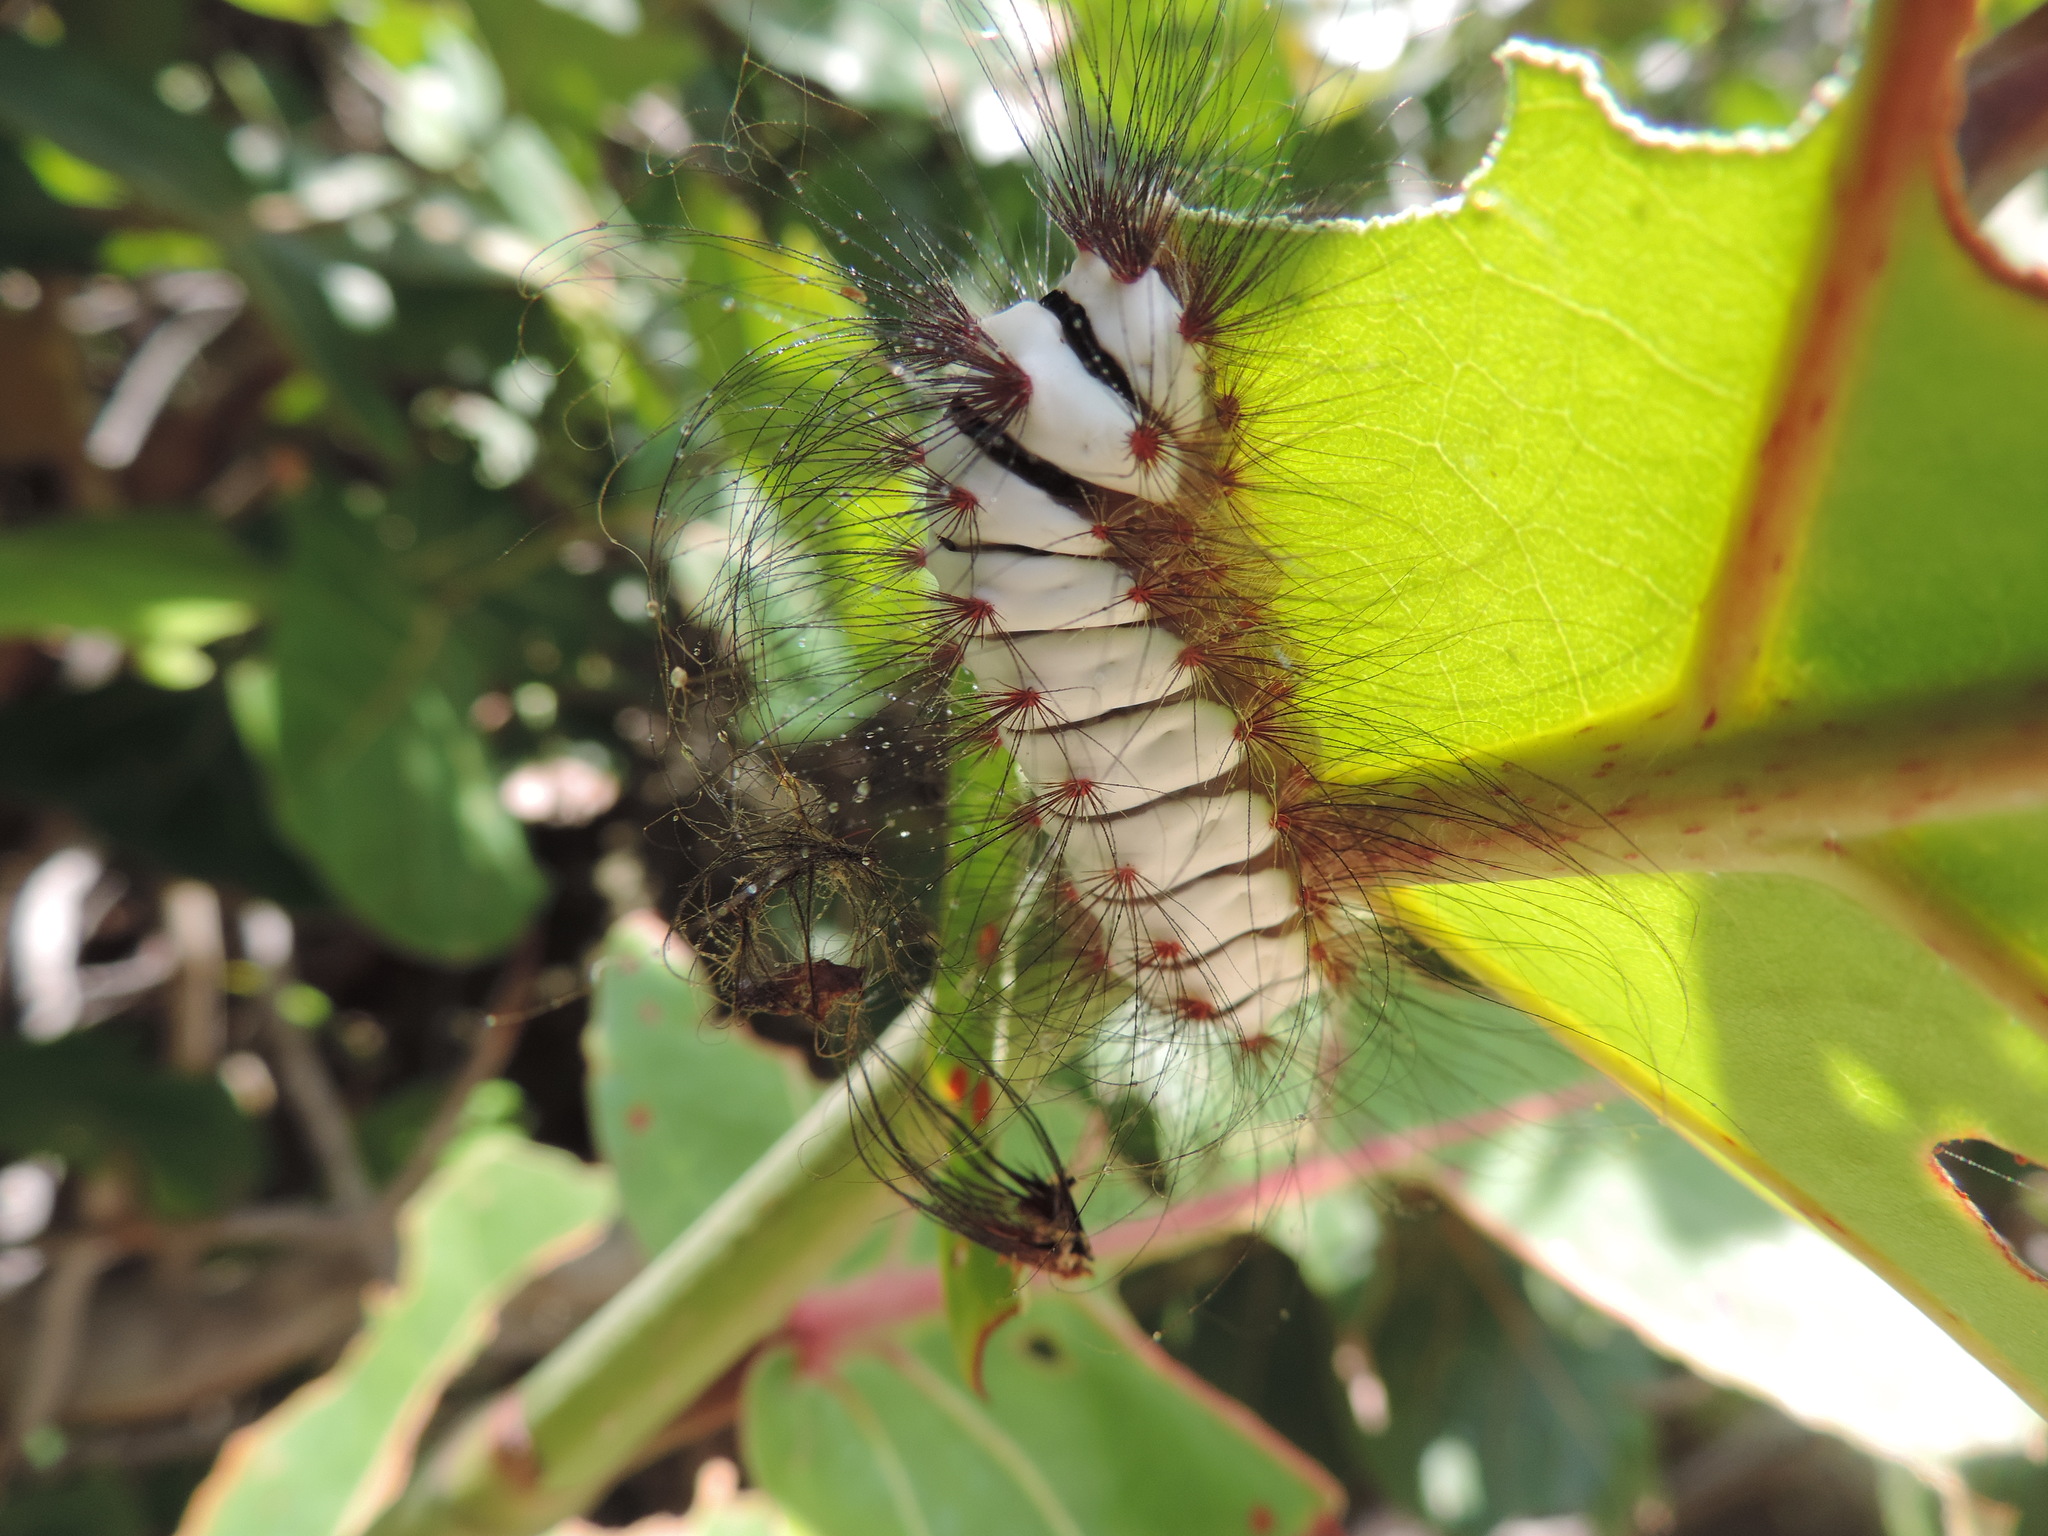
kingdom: Animalia
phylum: Arthropoda
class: Insecta
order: Lepidoptera
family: Megalopygidae
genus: Megalopyge
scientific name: Megalopyge lanata
